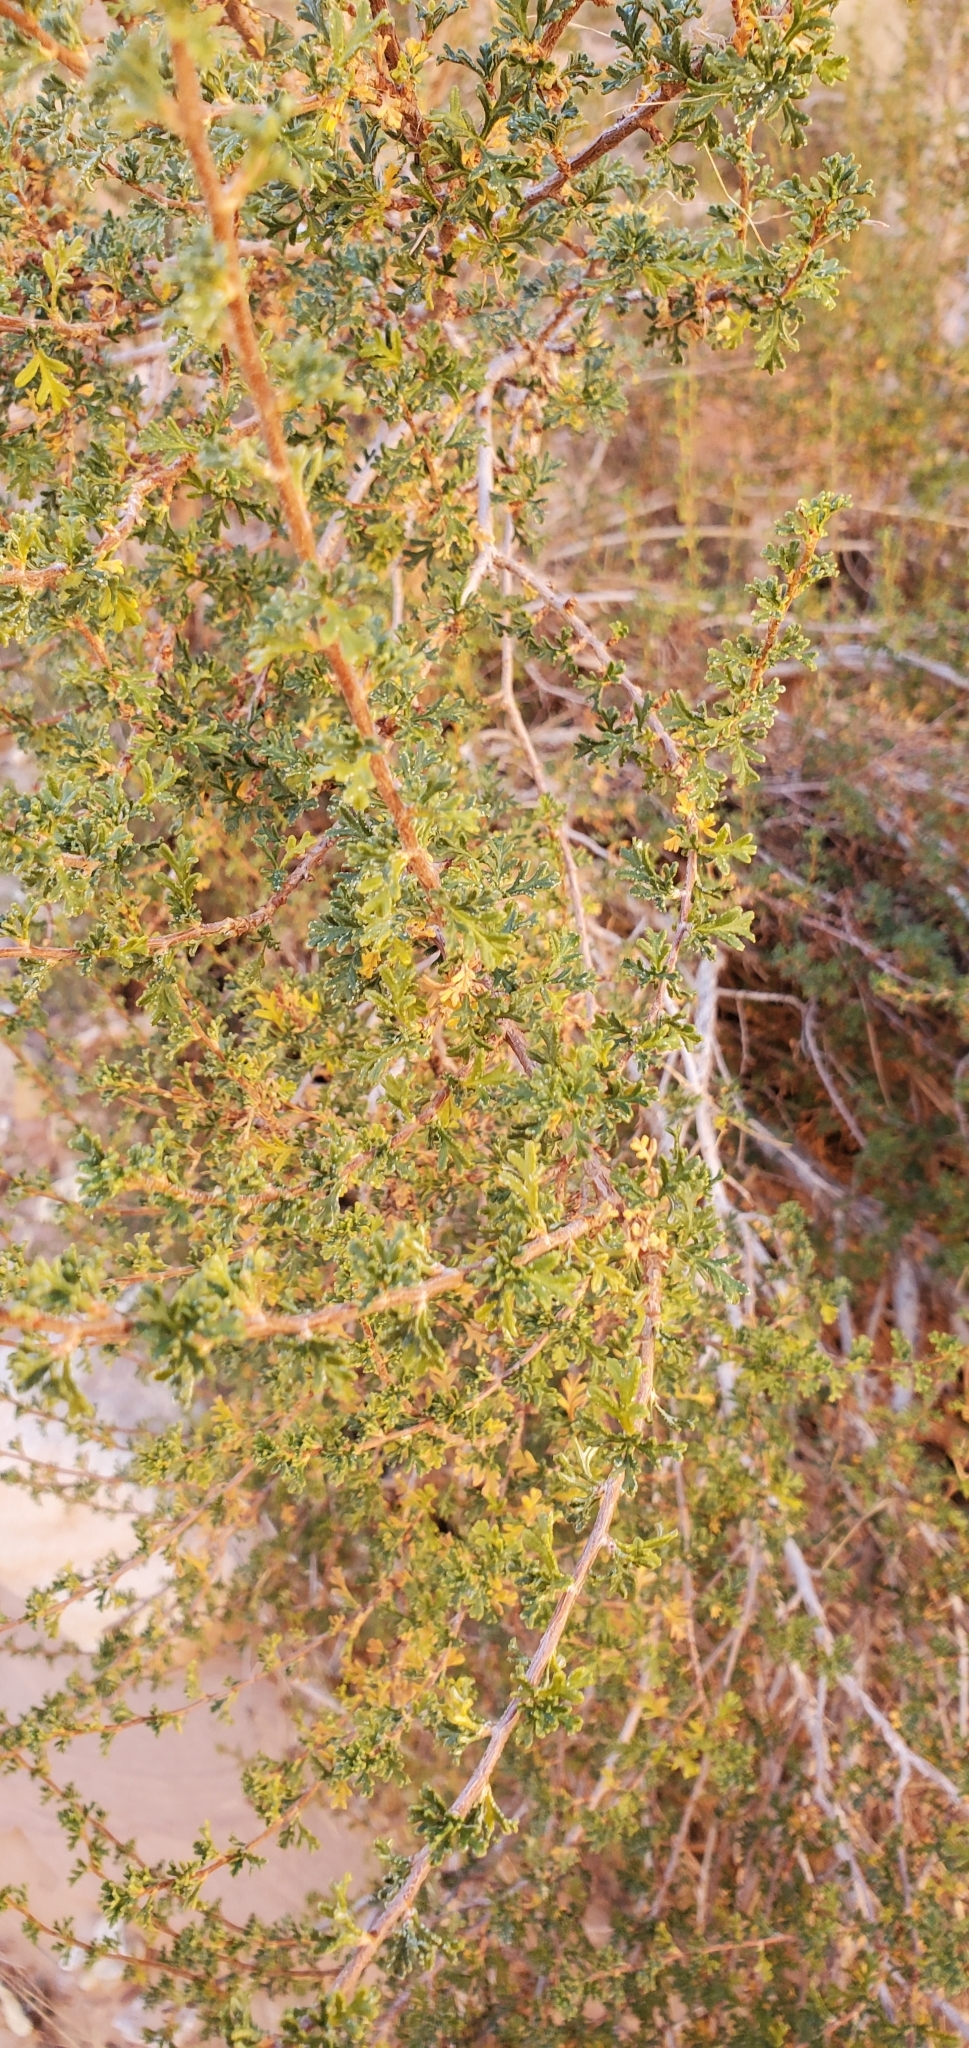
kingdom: Plantae
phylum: Tracheophyta
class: Magnoliopsida
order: Rosales
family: Rosaceae
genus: Purshia
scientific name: Purshia stansburiana
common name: Stansbury's cliffrose
